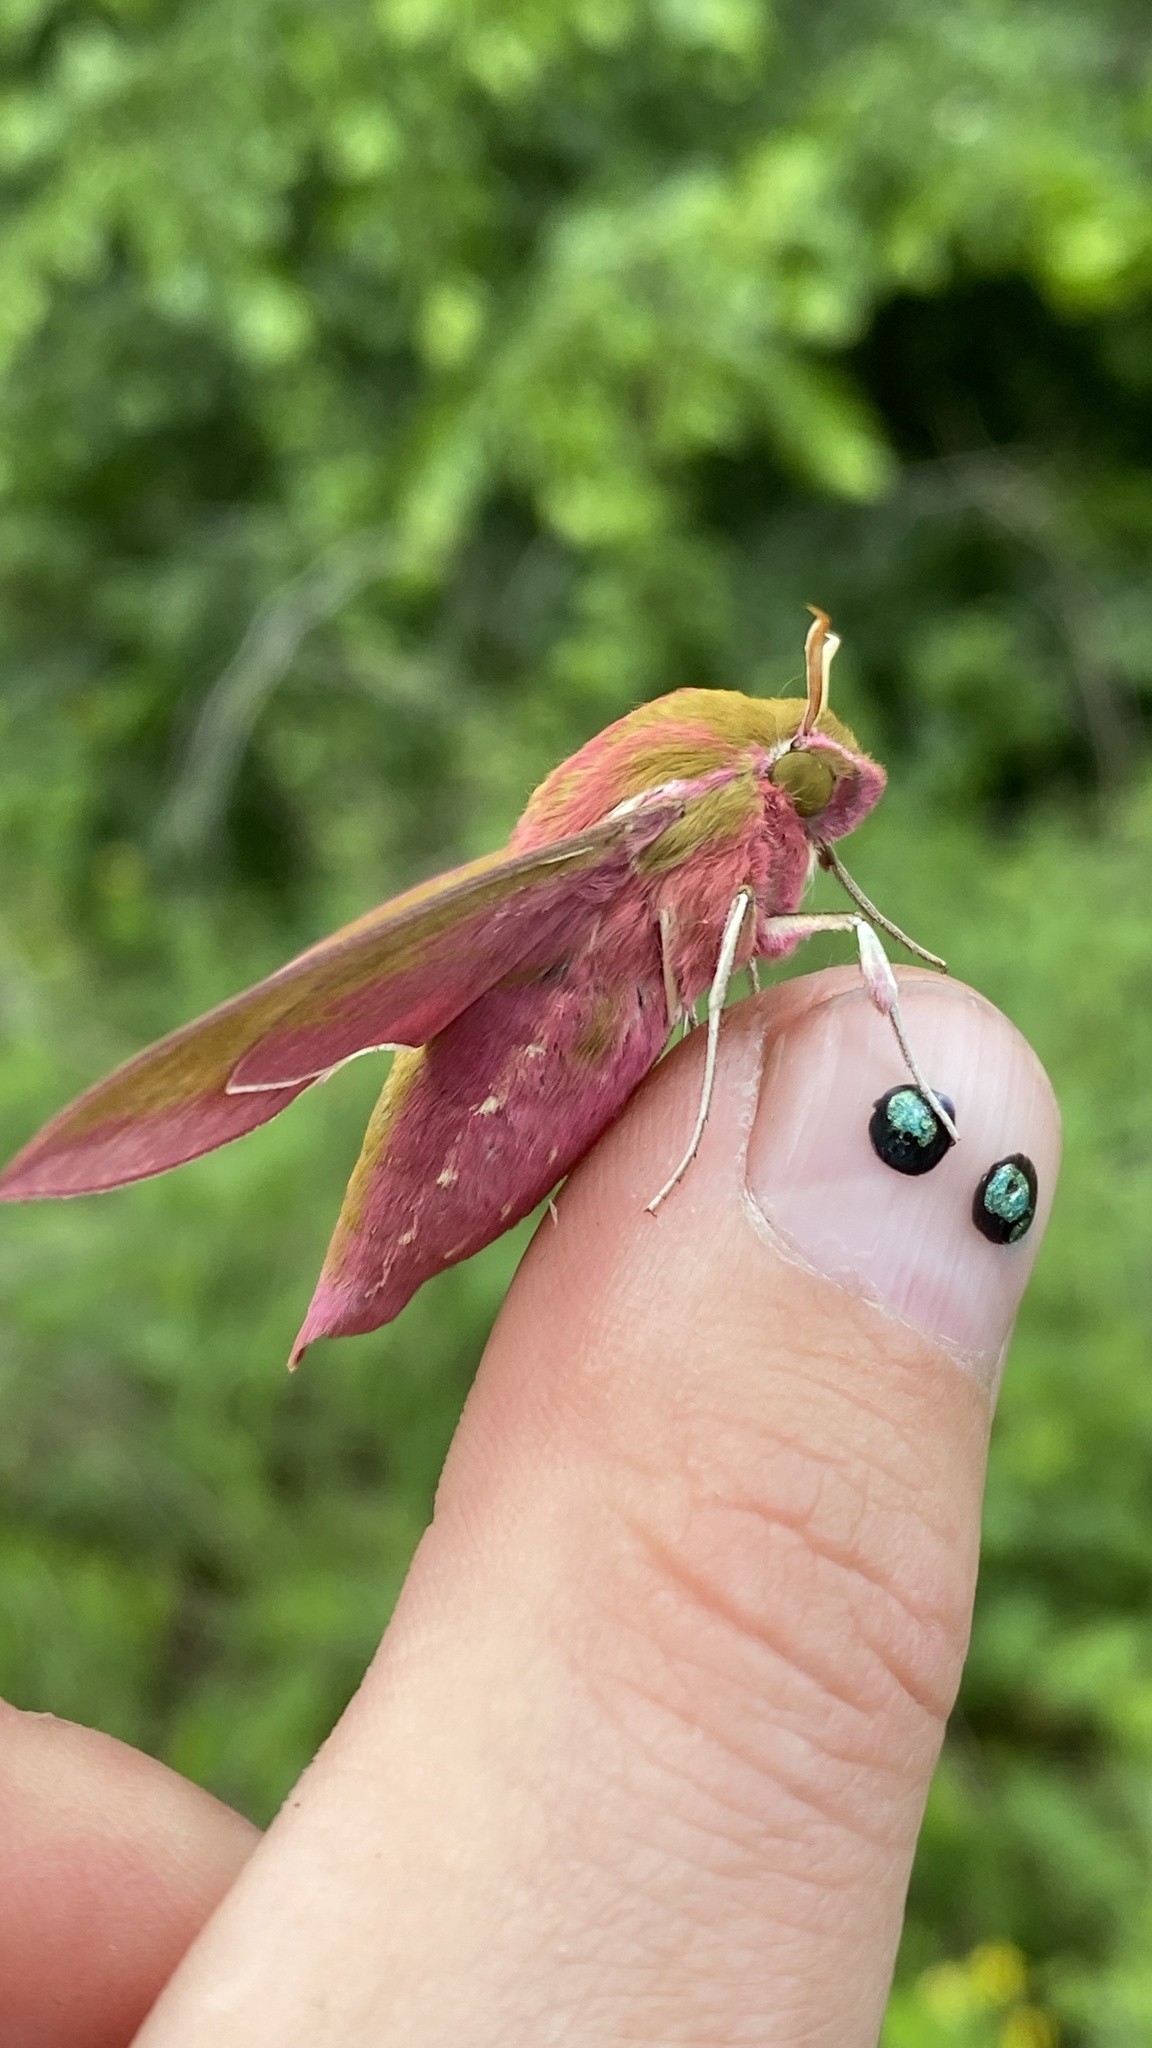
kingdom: Animalia
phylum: Arthropoda
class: Insecta
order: Lepidoptera
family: Sphingidae
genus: Deilephila
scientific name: Deilephila elpenor
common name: Elephant hawk-moth
